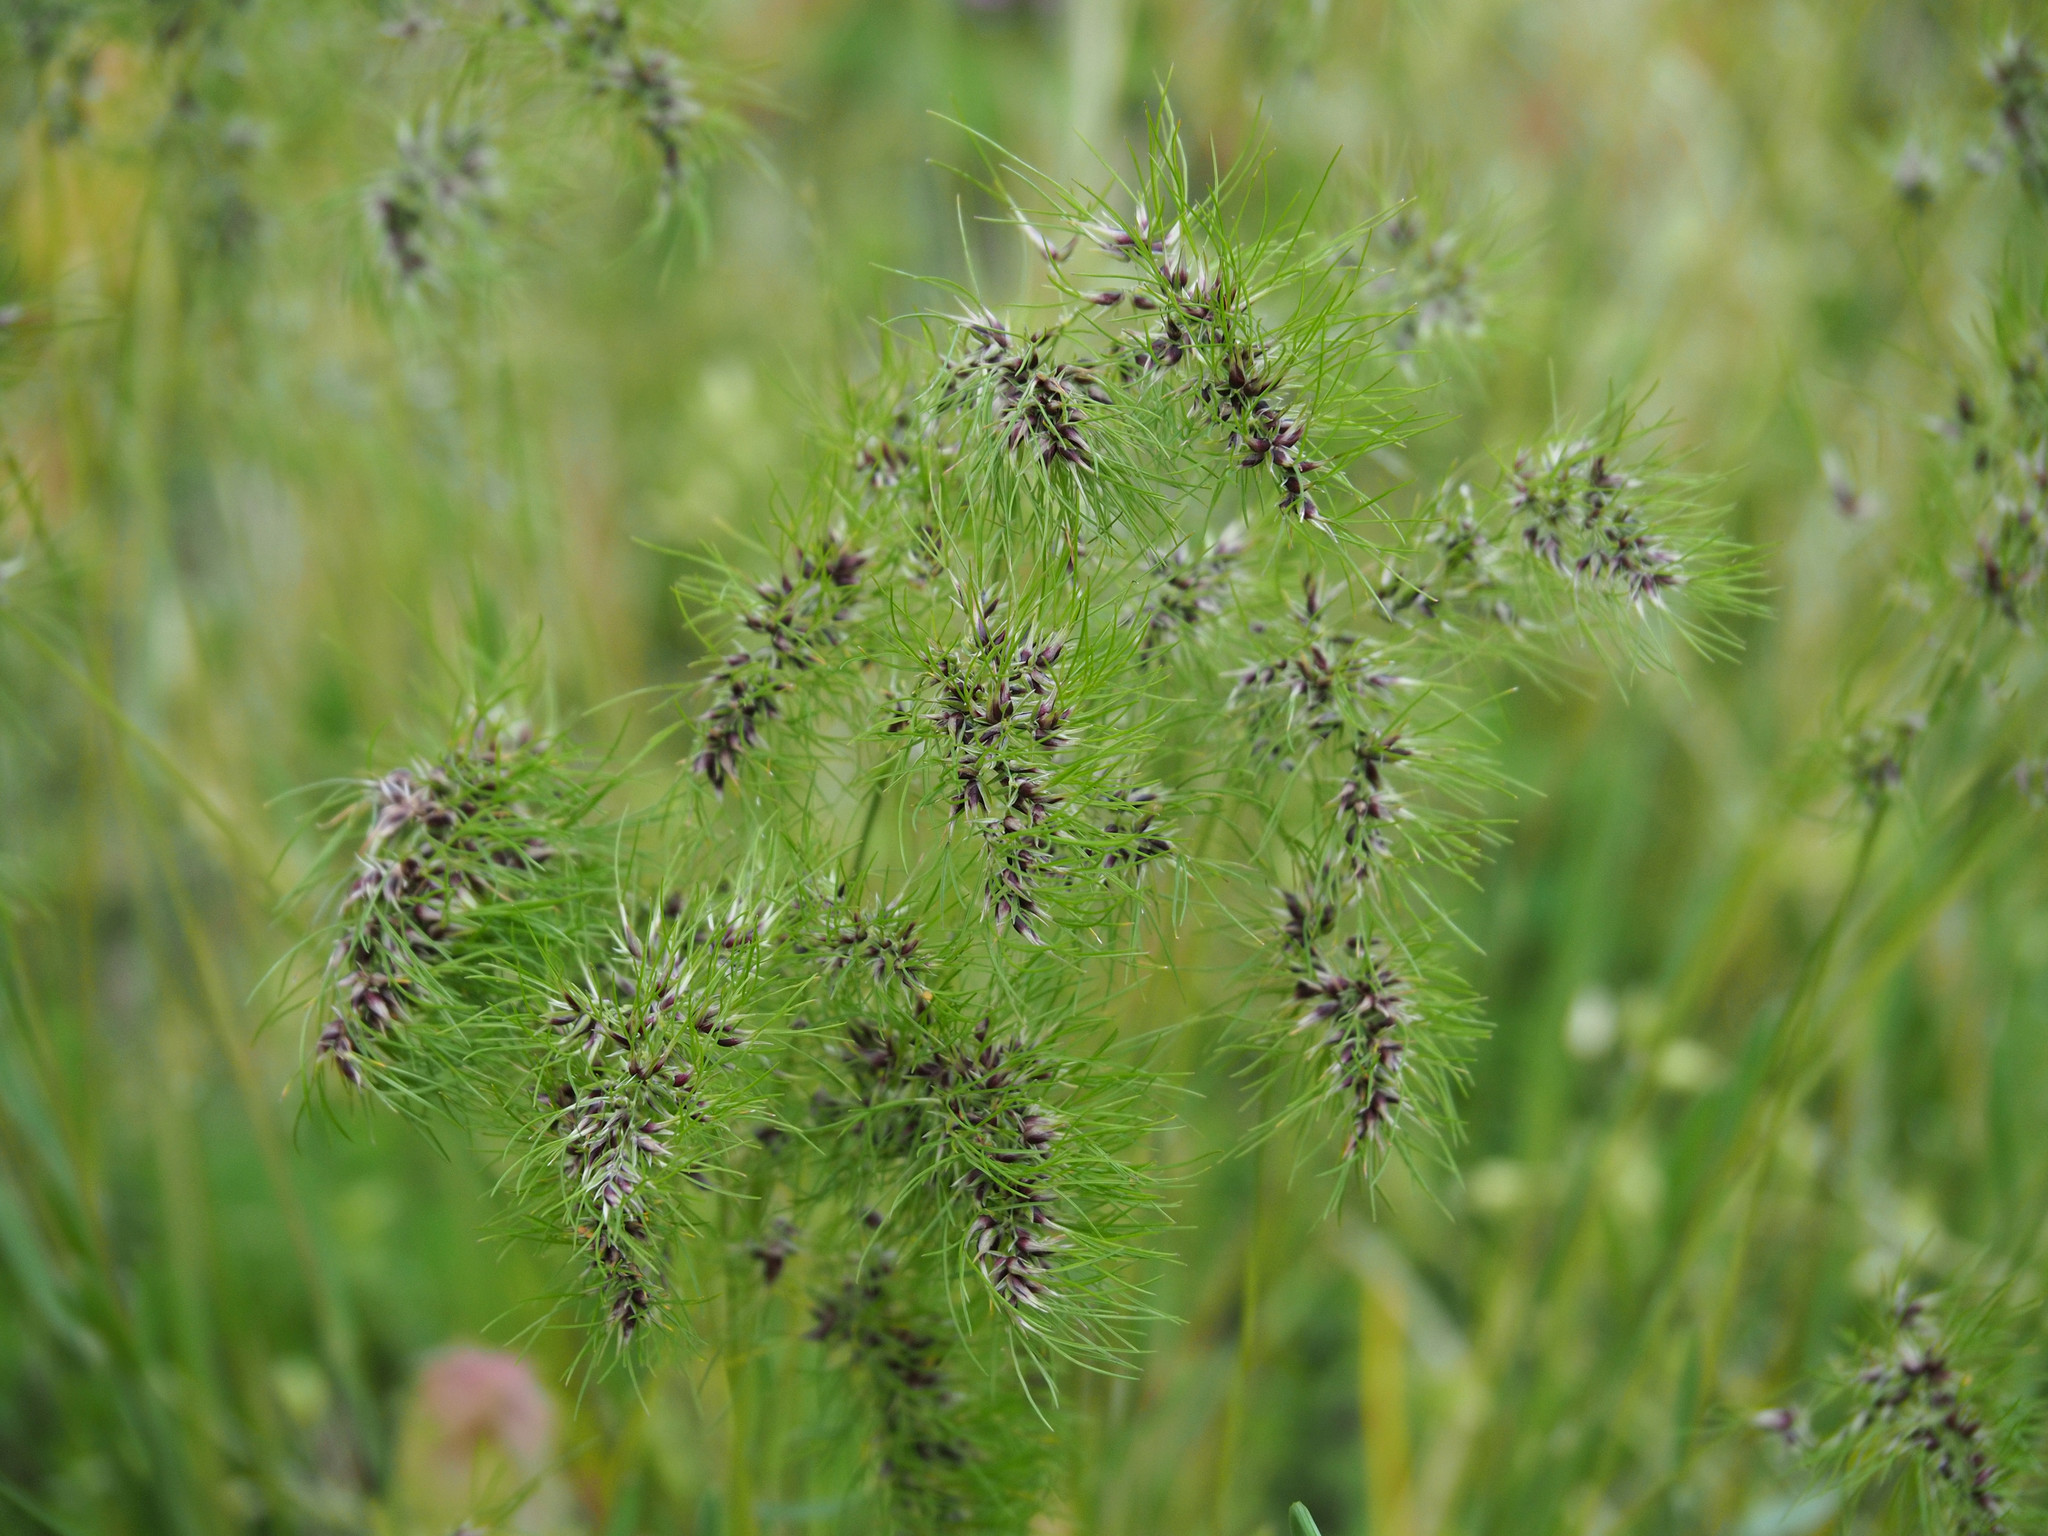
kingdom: Plantae
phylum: Tracheophyta
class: Liliopsida
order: Poales
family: Poaceae
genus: Poa
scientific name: Poa bulbosa
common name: Bulbous bluegrass
